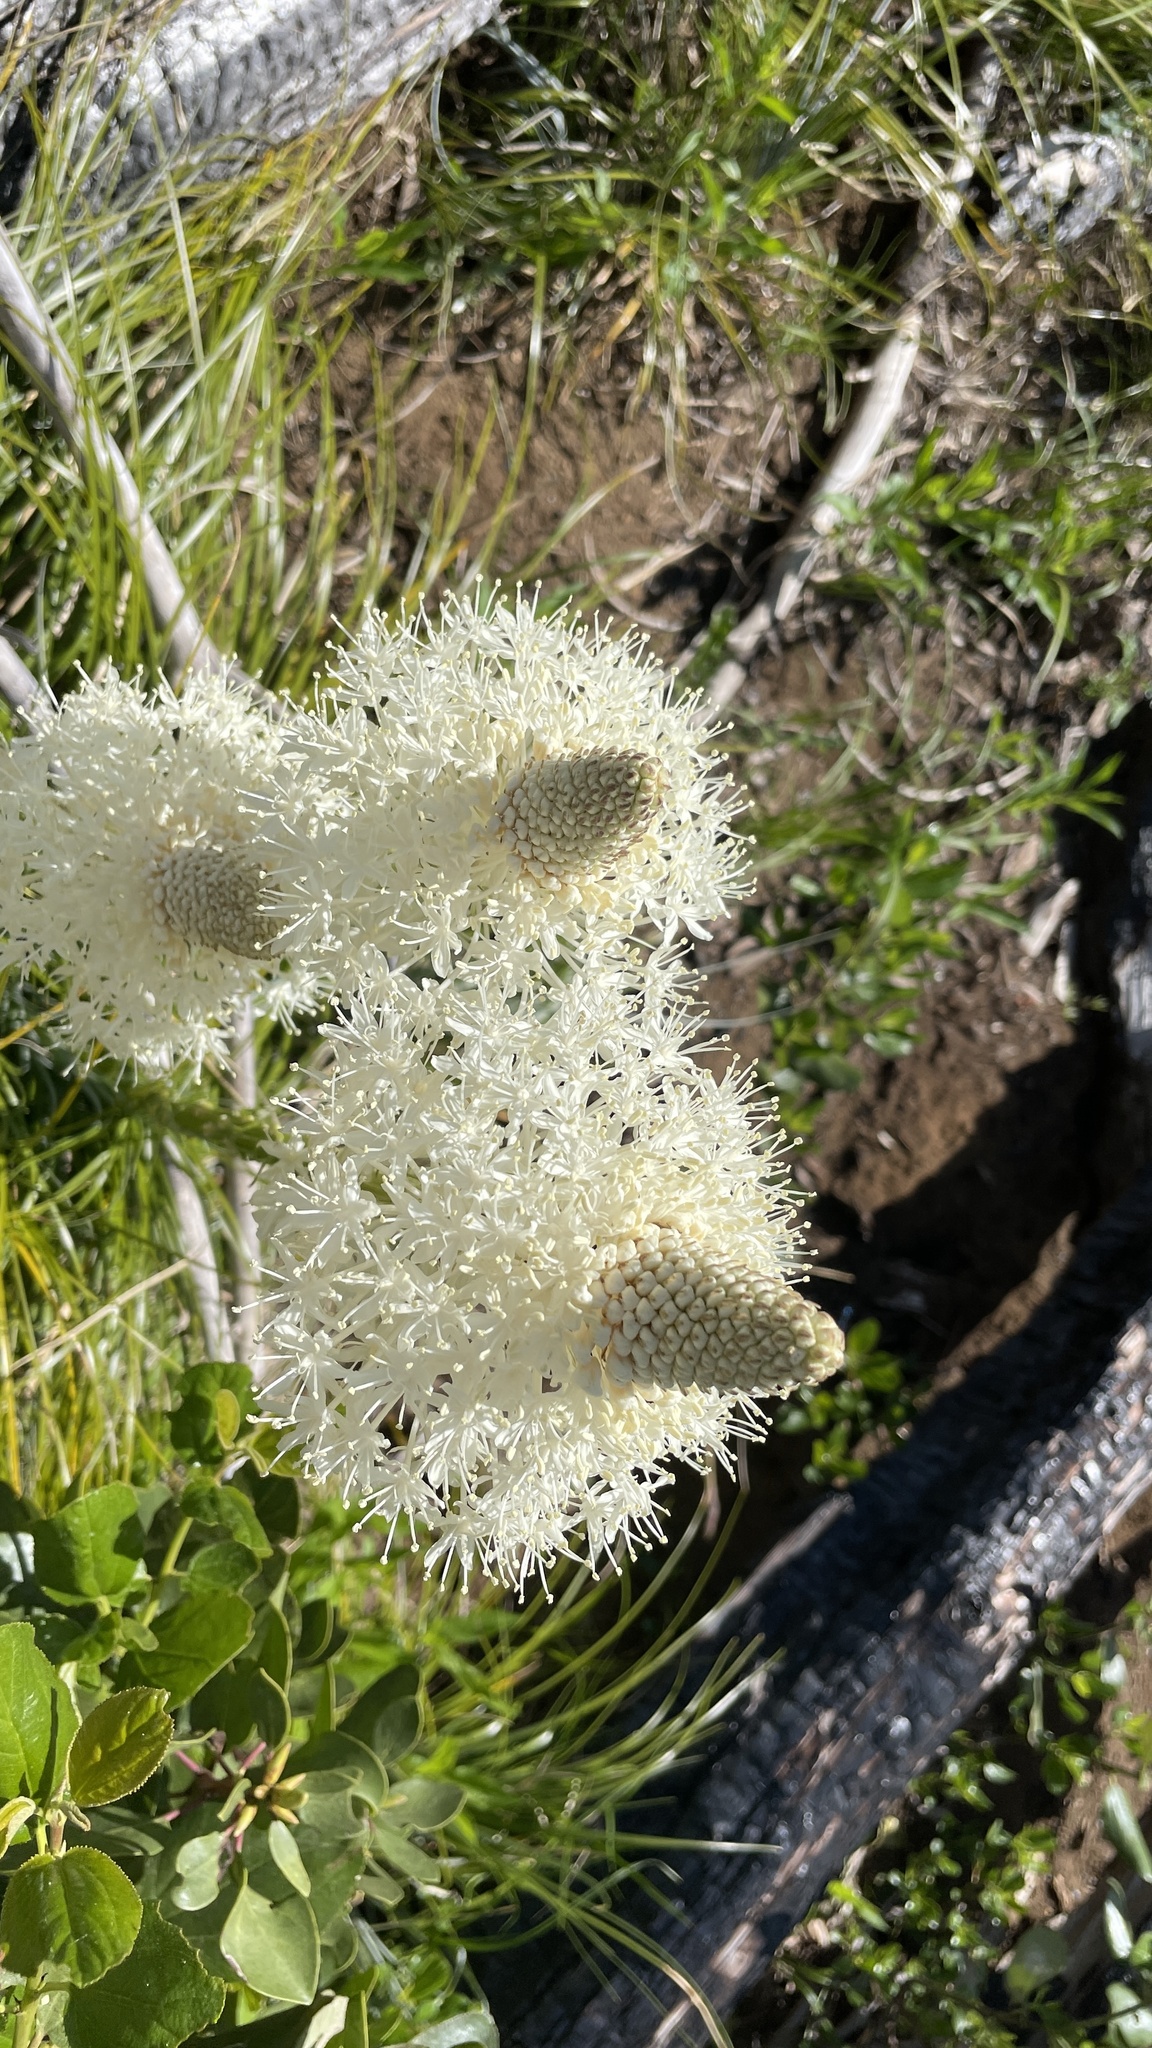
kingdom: Plantae
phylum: Tracheophyta
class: Liliopsida
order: Liliales
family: Melanthiaceae
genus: Xerophyllum
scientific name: Xerophyllum tenax
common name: Bear-grass
